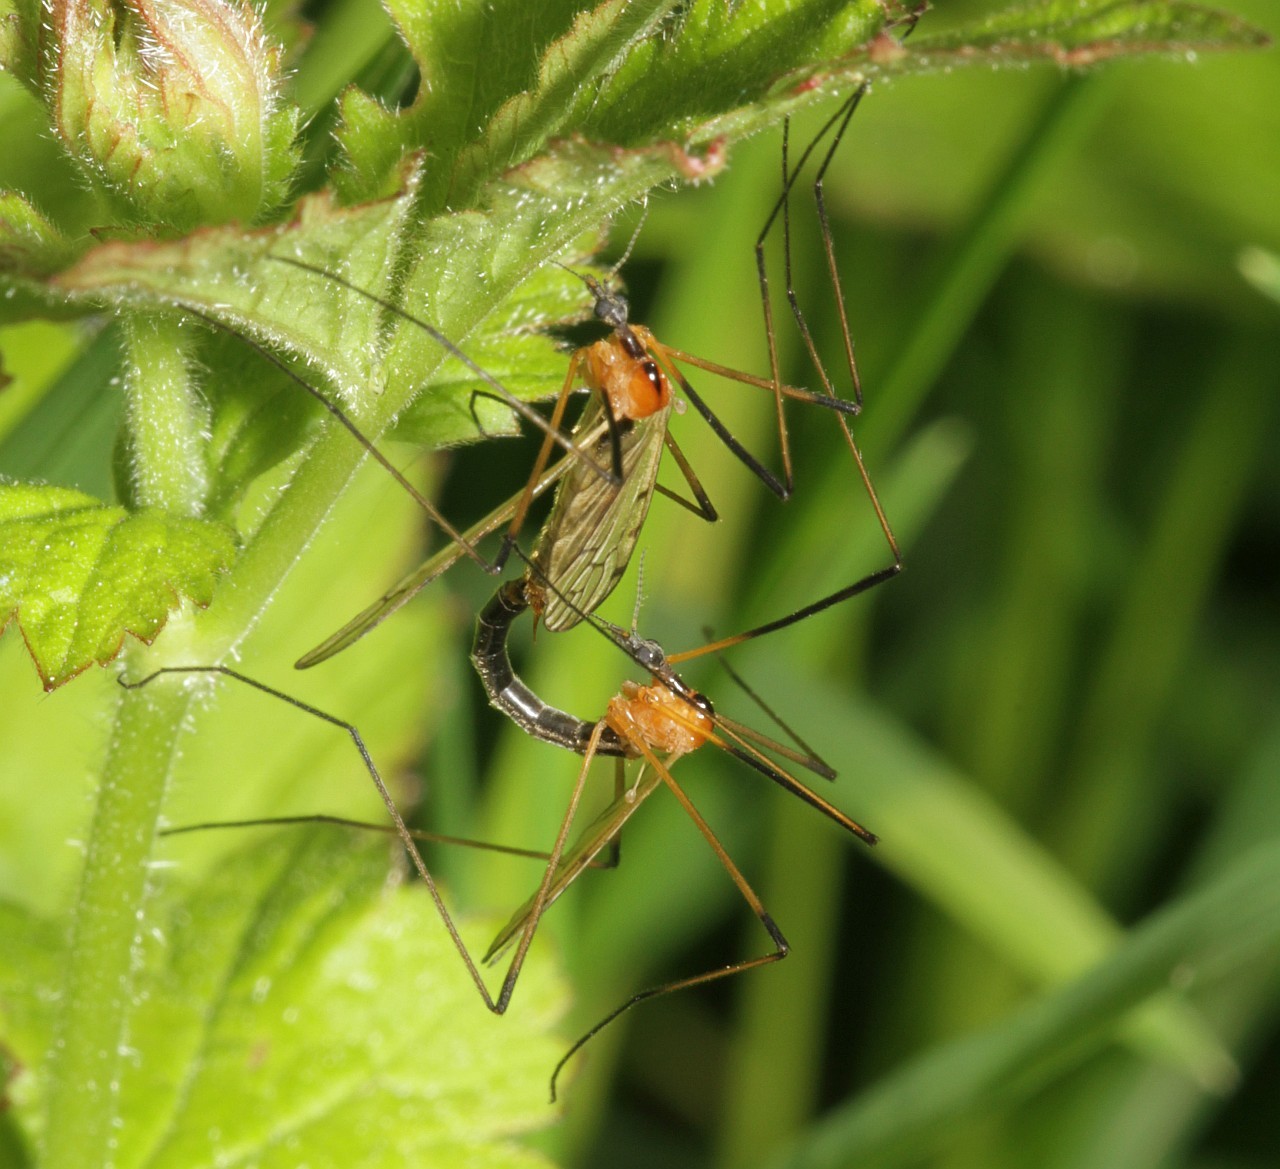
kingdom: Animalia
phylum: Arthropoda
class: Insecta
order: Diptera
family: Limoniidae
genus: Limonia
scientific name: Limonia nigropunctata
